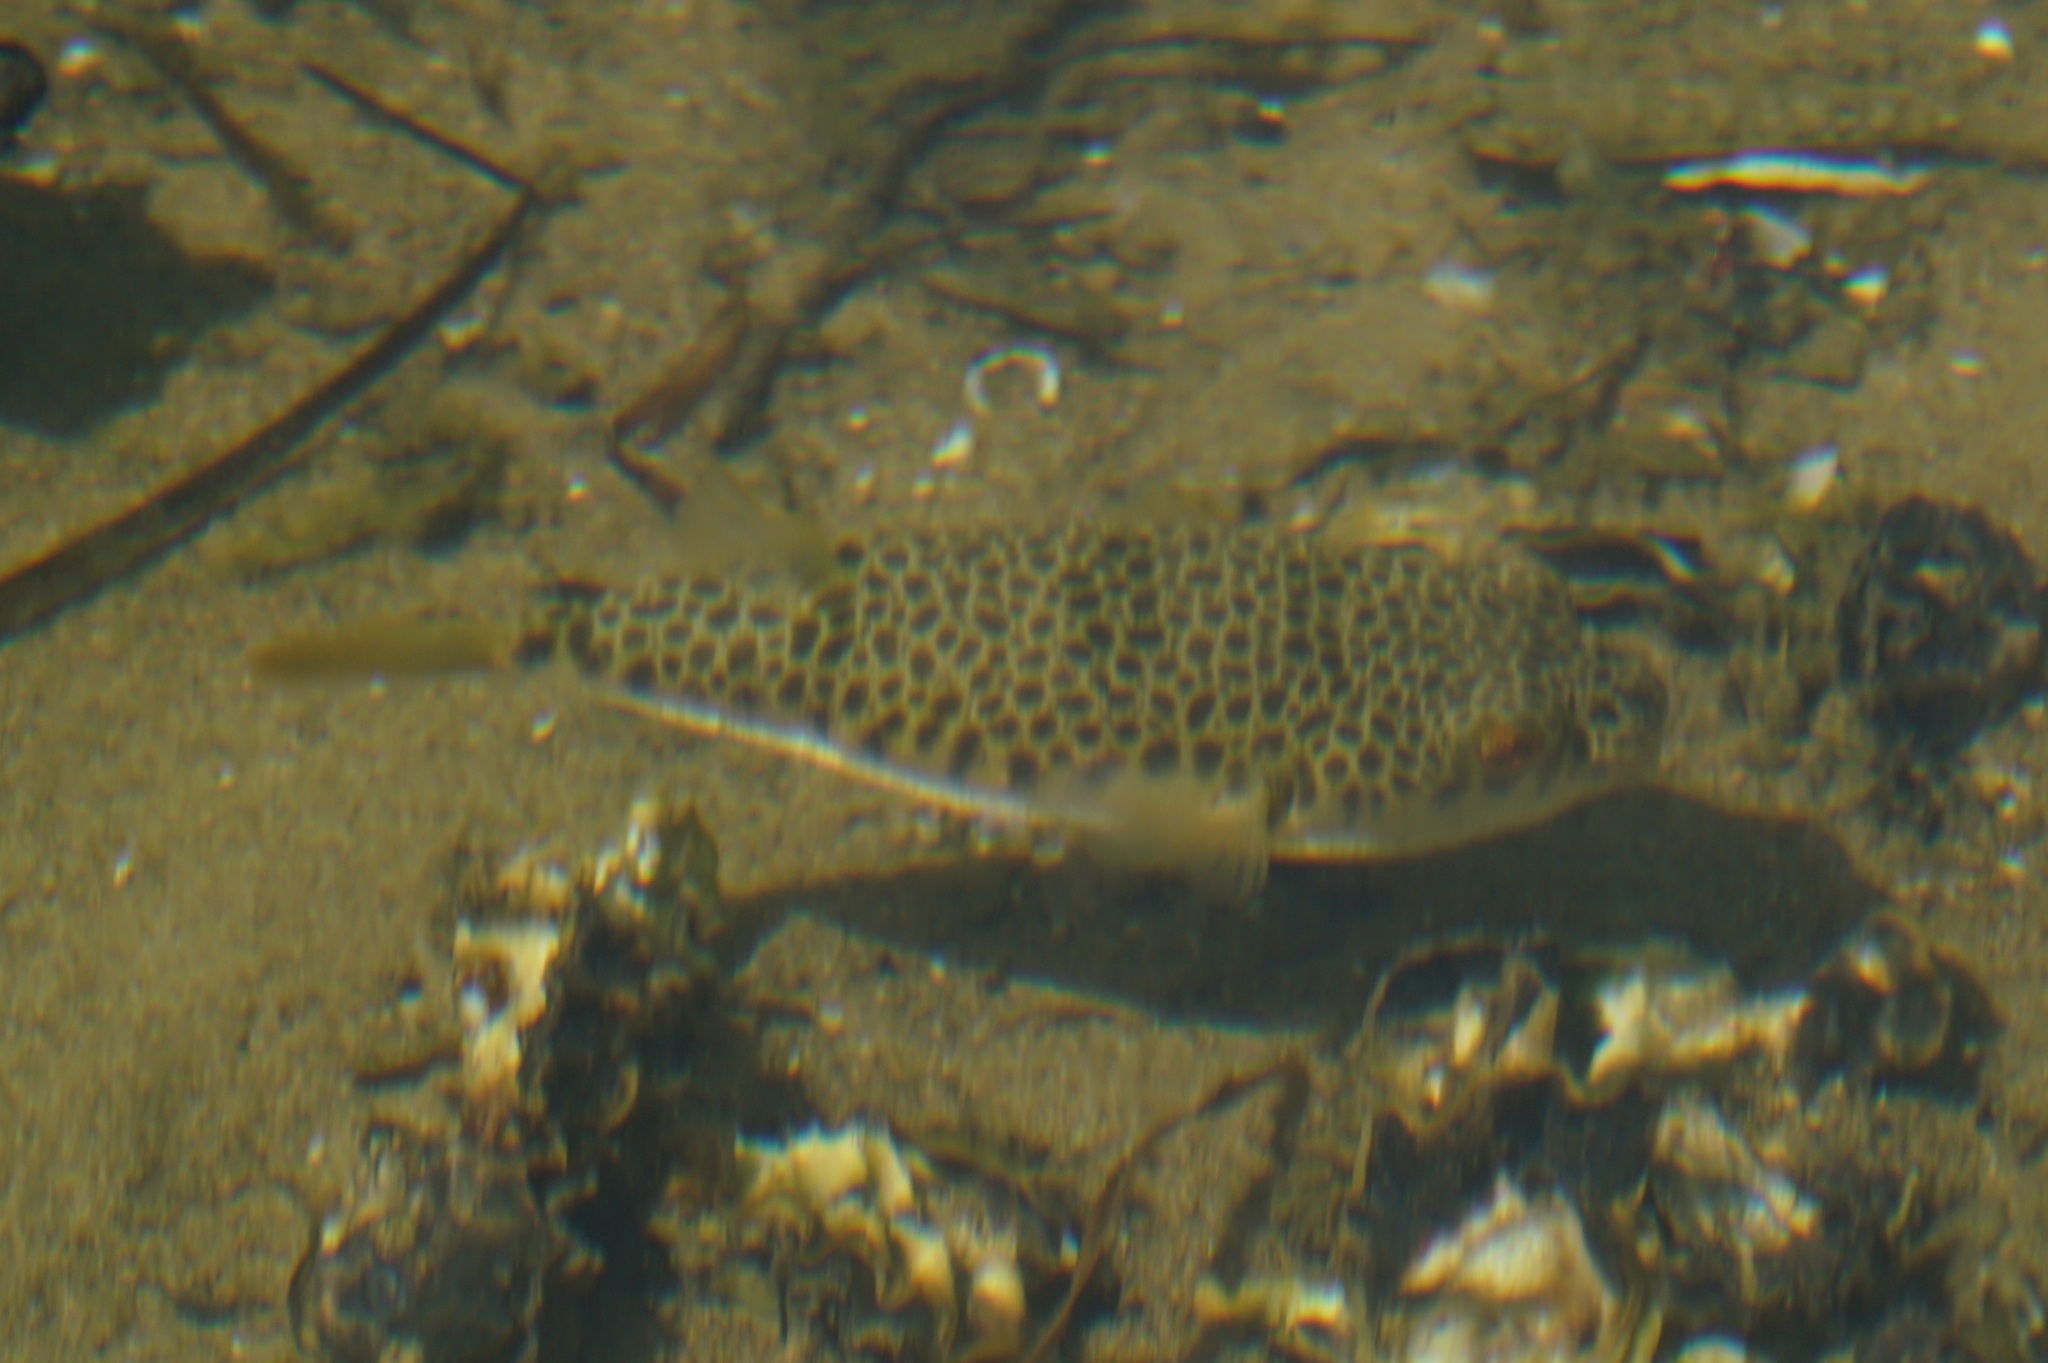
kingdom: Animalia
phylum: Chordata
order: Tetraodontiformes
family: Tetraodontidae
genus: Tetractenos
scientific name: Tetractenos hamiltoni
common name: Common toadfish
